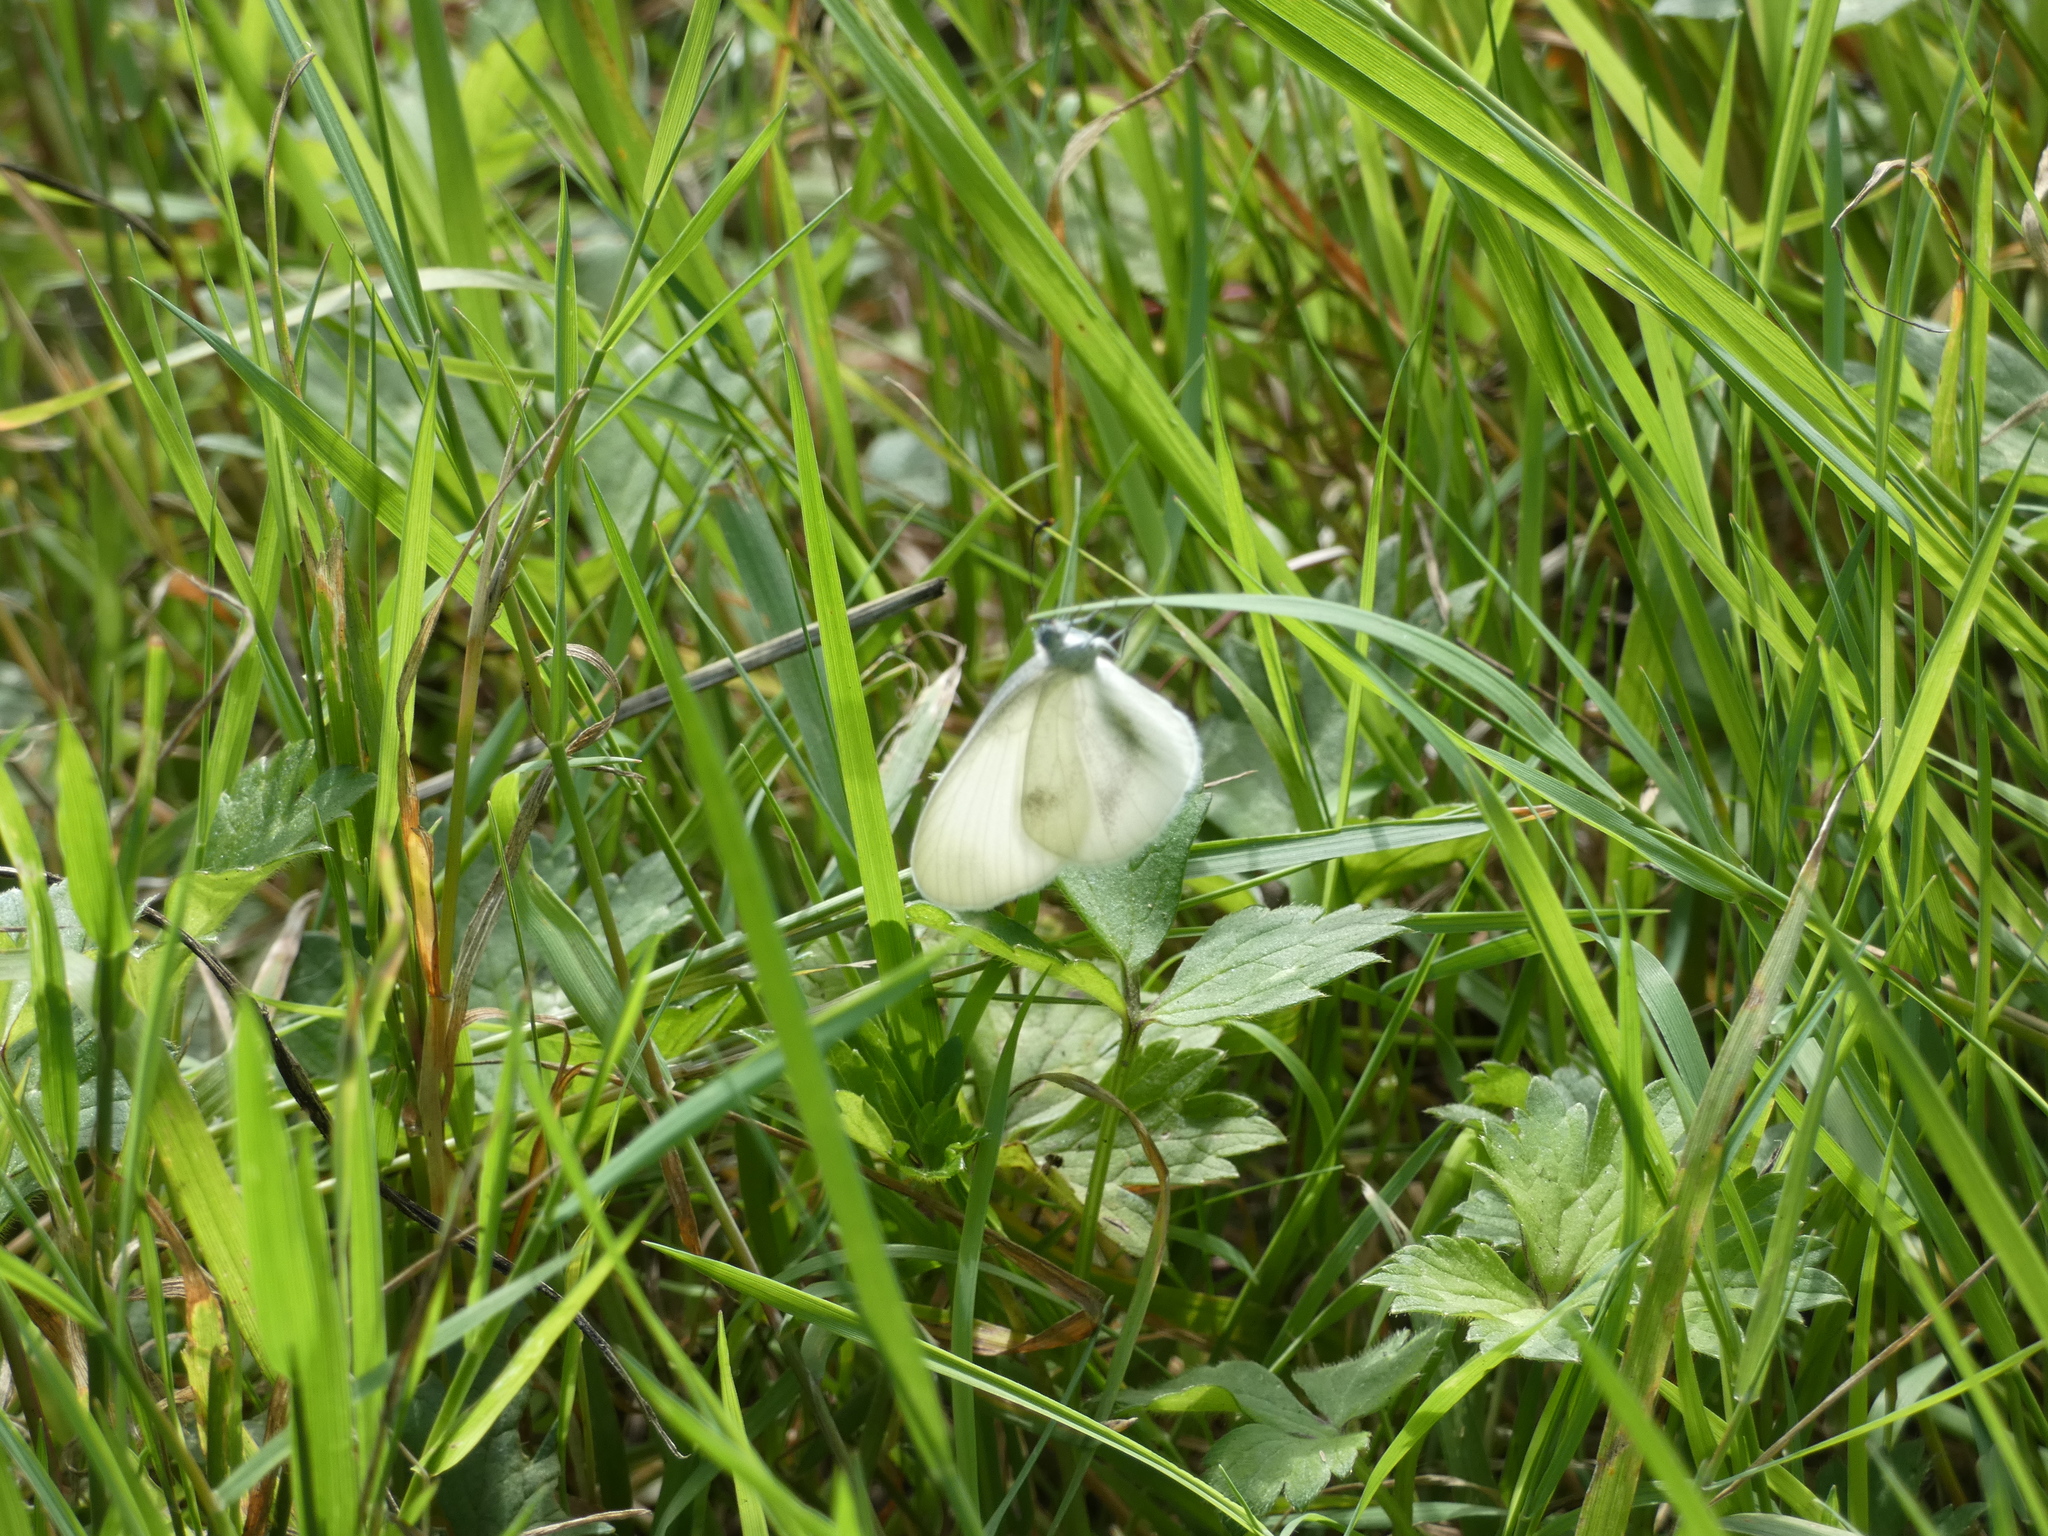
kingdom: Animalia
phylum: Arthropoda
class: Insecta
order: Lepidoptera
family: Pieridae
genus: Leptidea
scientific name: Leptidea sinapis
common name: Wood white
